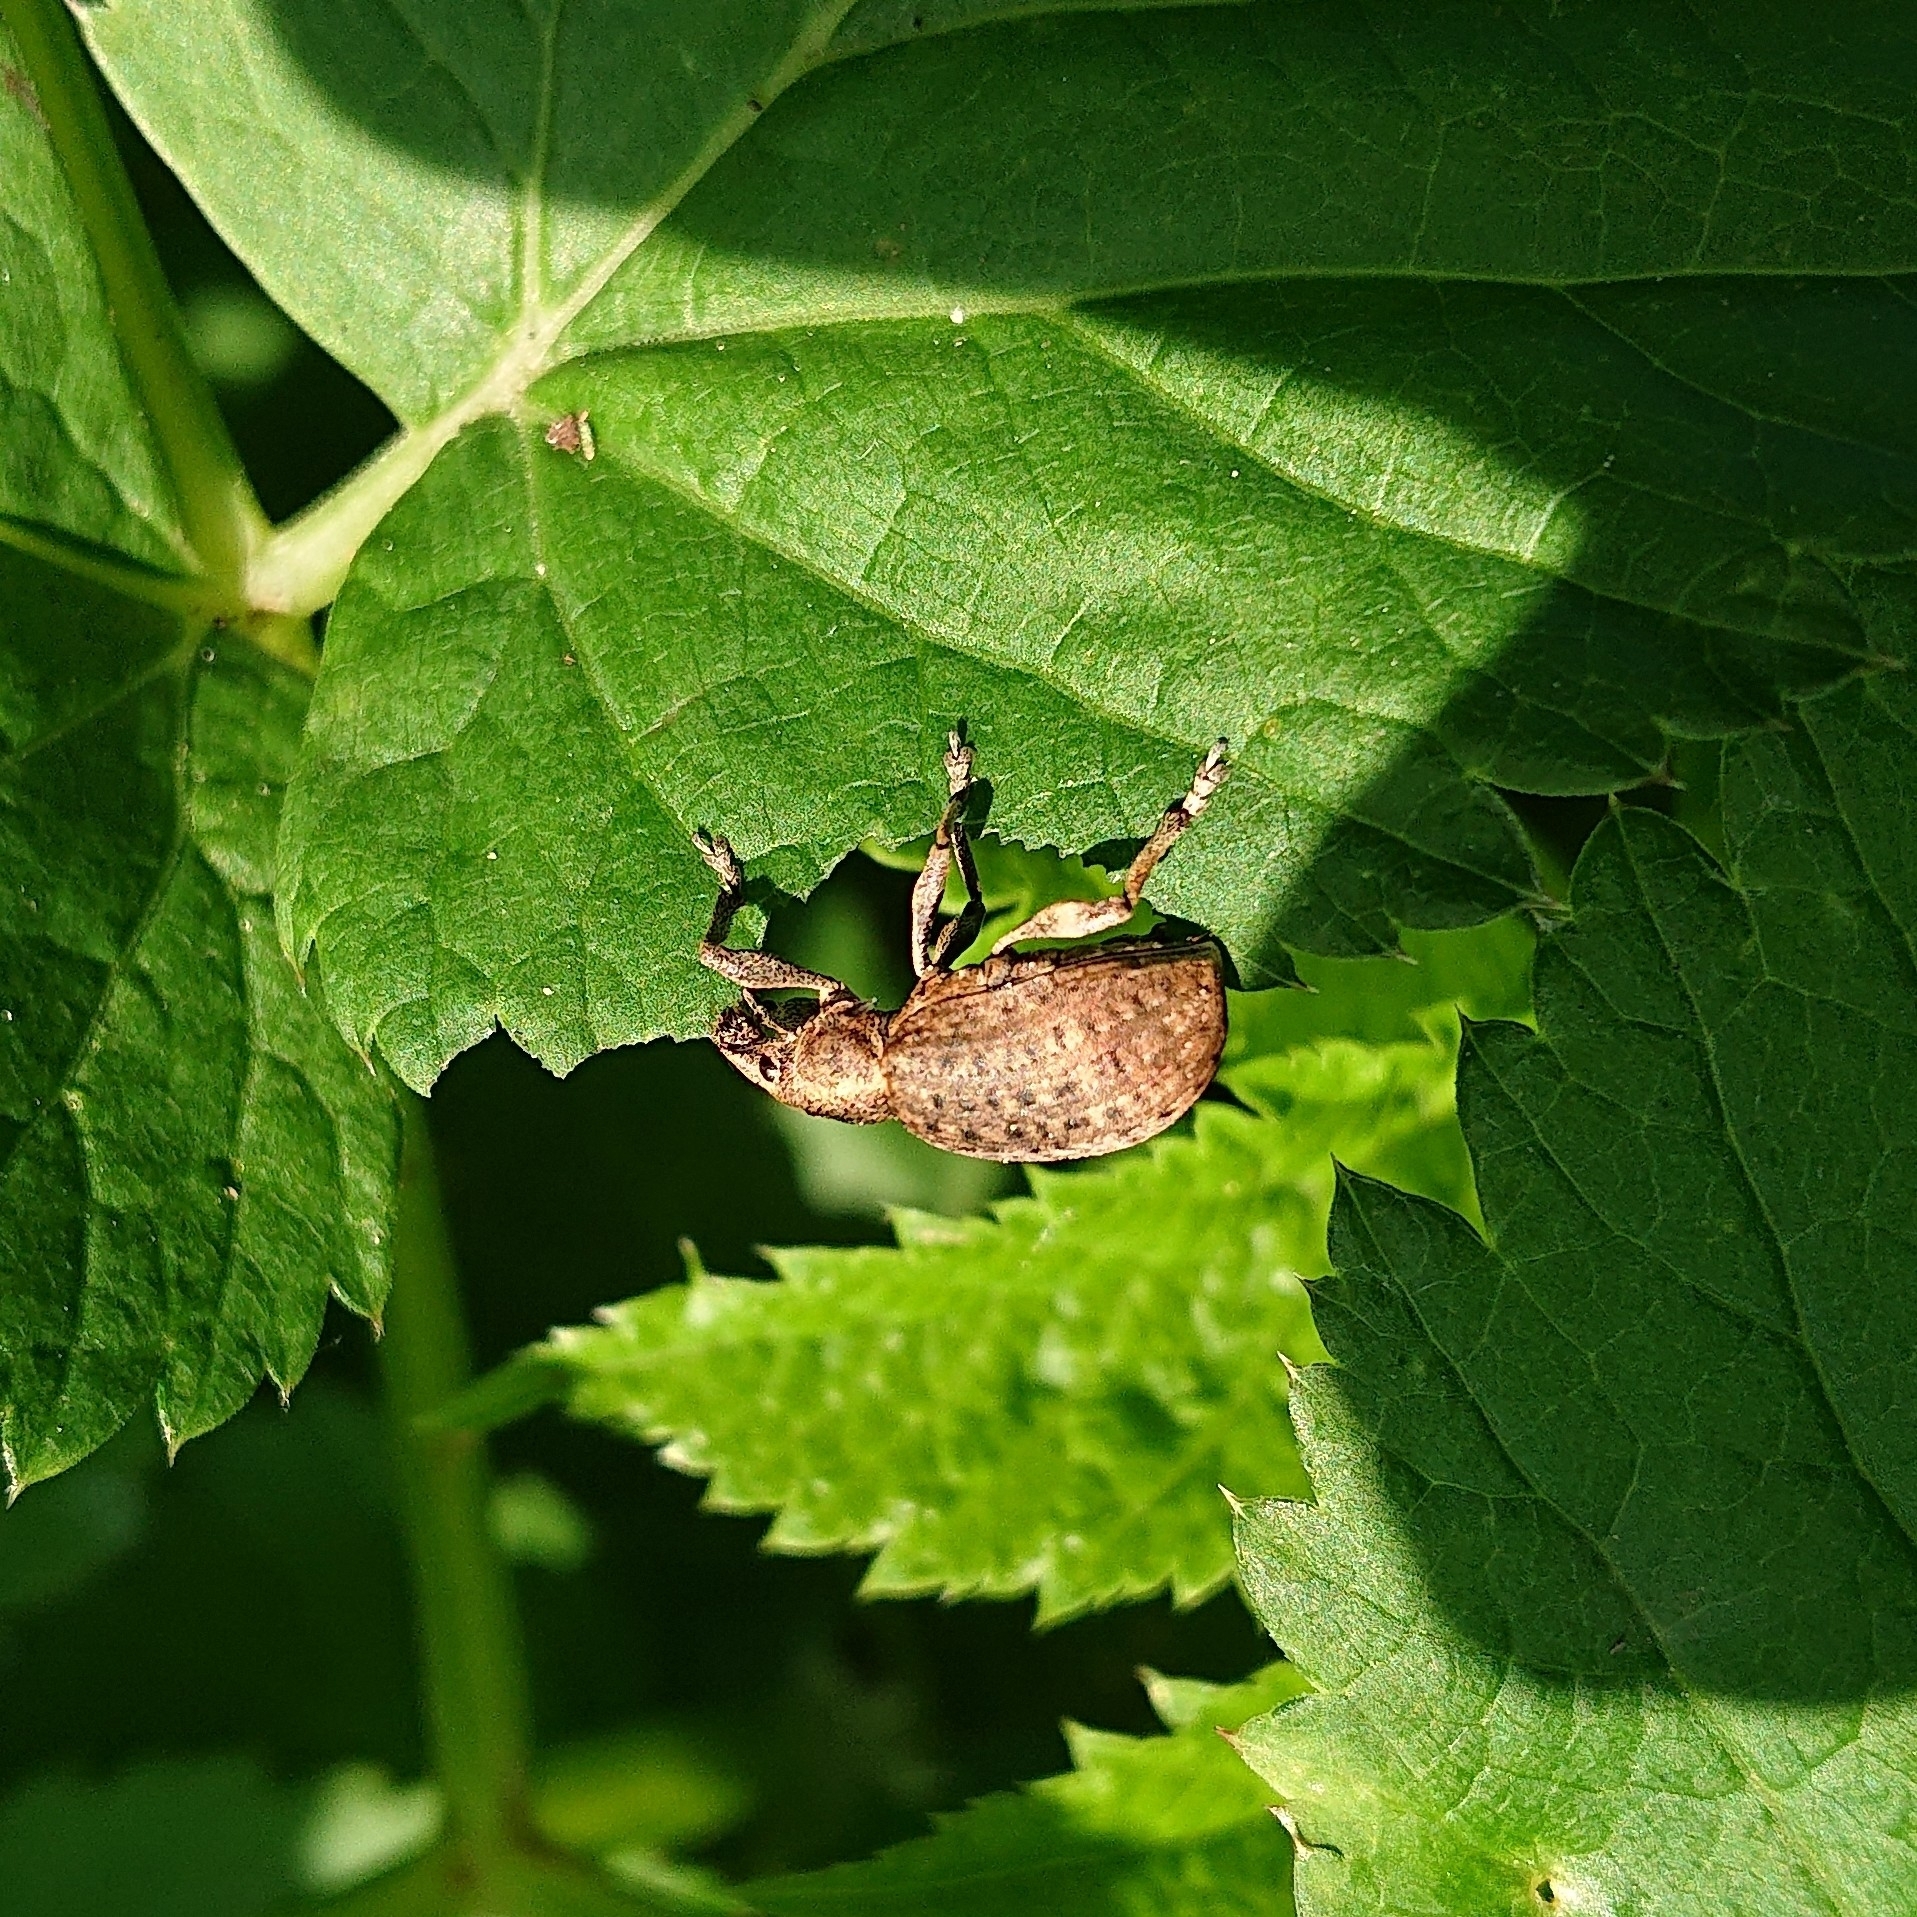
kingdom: Animalia
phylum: Arthropoda
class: Insecta
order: Coleoptera
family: Curculionidae
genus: Liophloeus
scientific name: Liophloeus tessulatus
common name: Weevil
